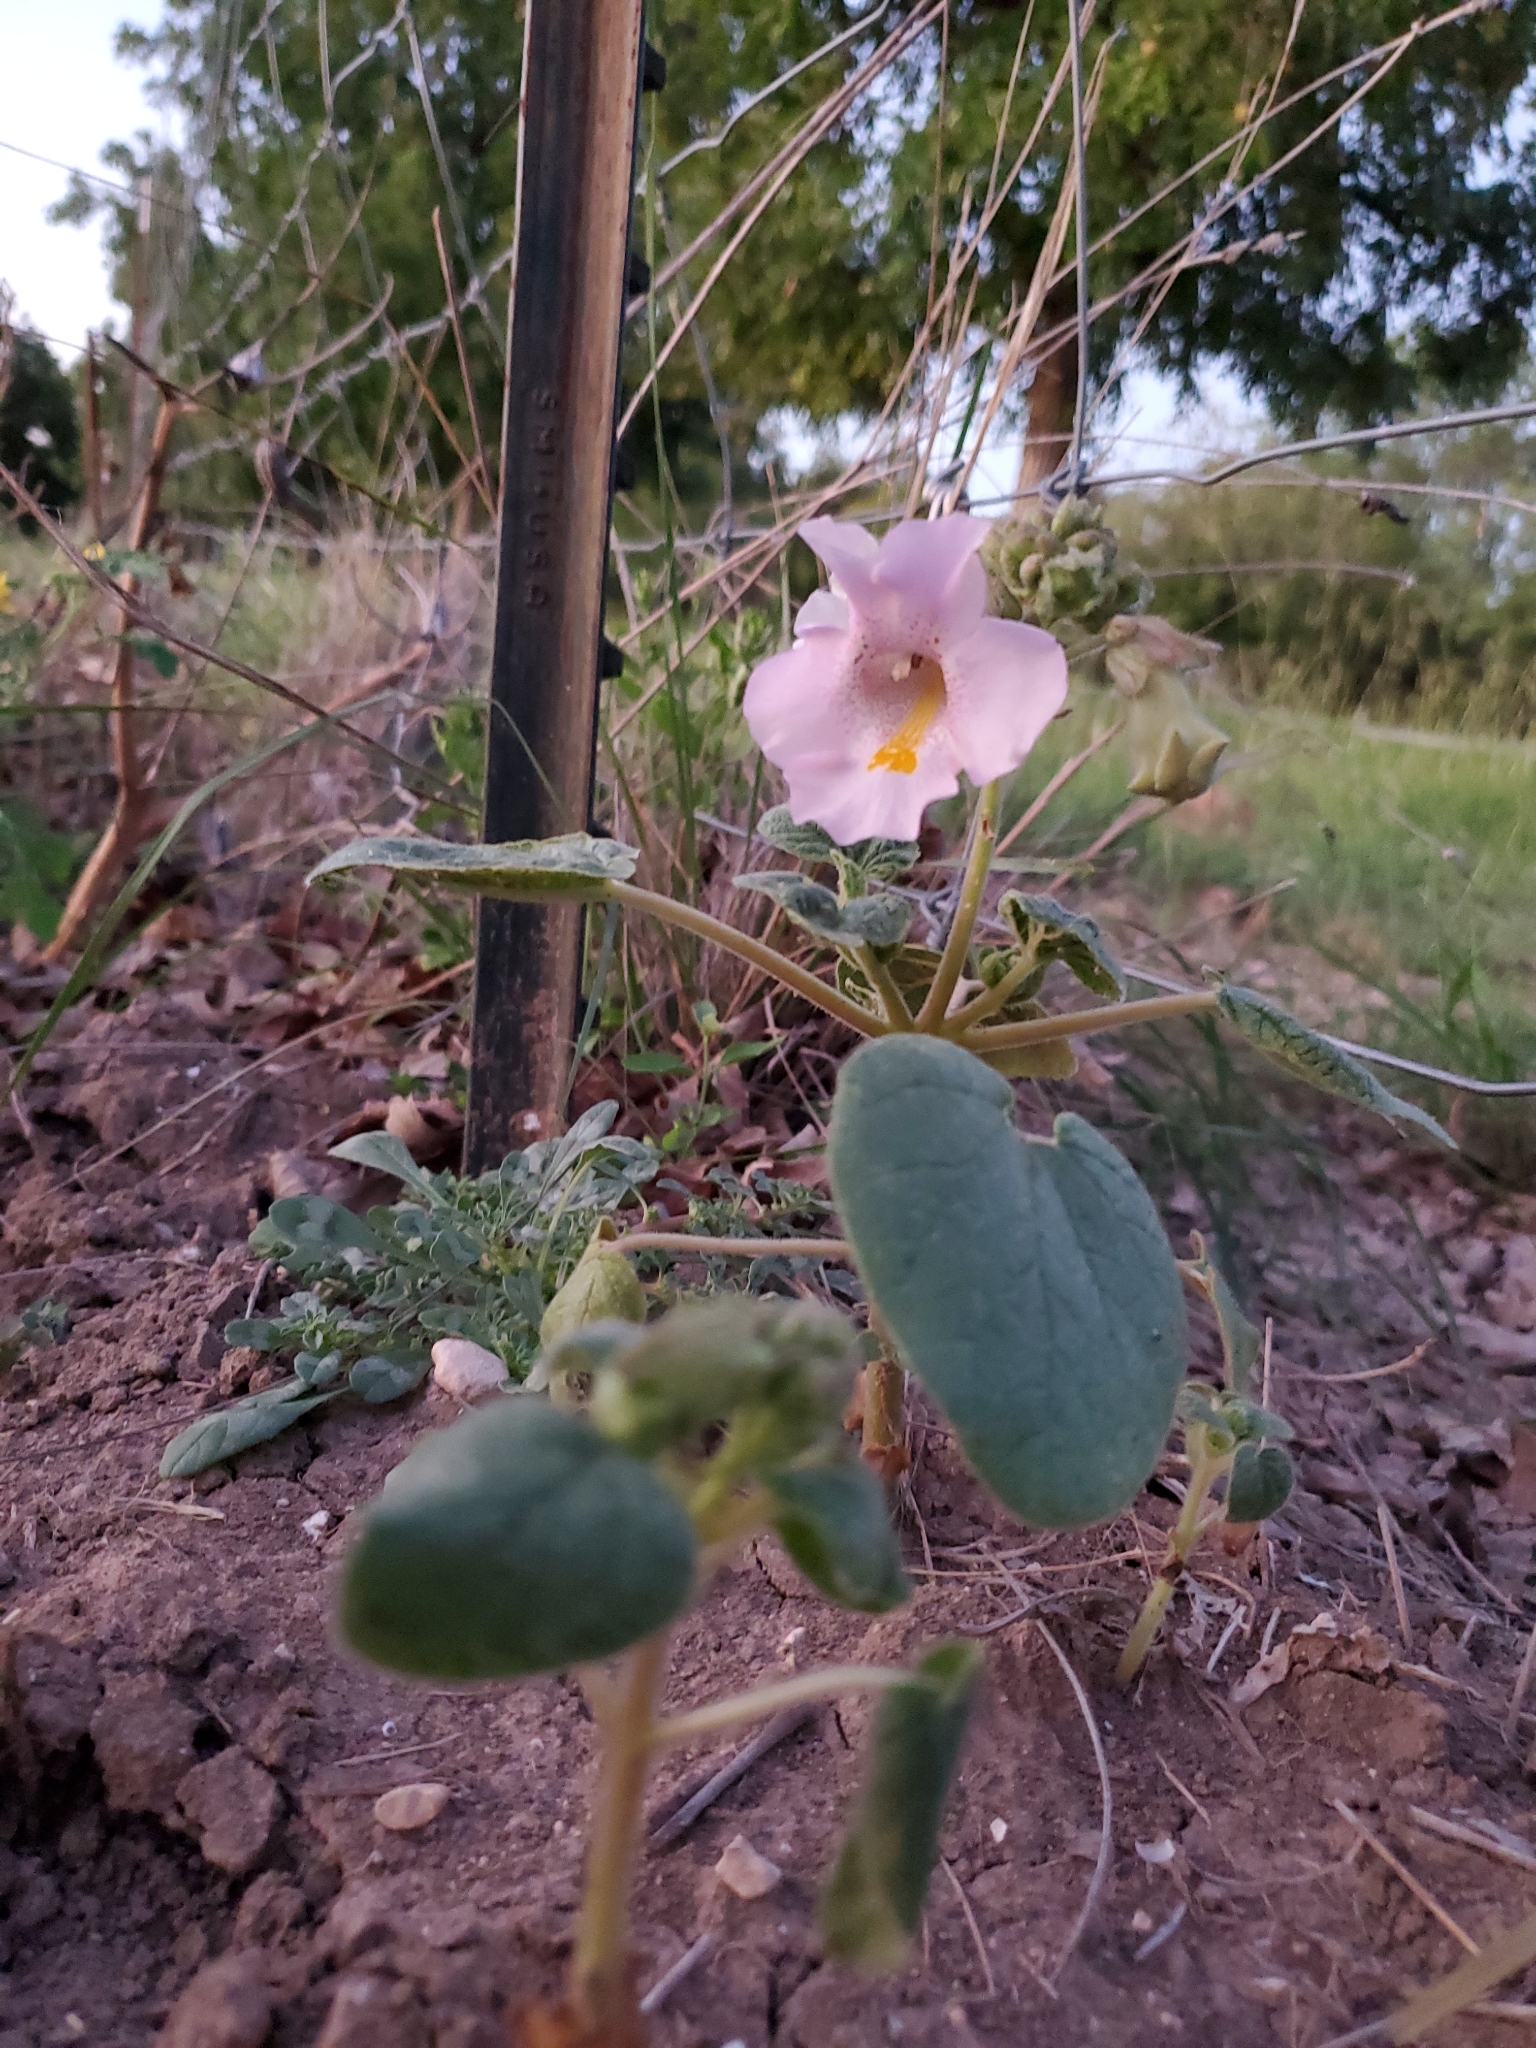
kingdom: Plantae
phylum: Tracheophyta
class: Magnoliopsida
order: Lamiales
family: Martyniaceae
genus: Proboscidea
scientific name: Proboscidea louisianica
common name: Elephant tusks
